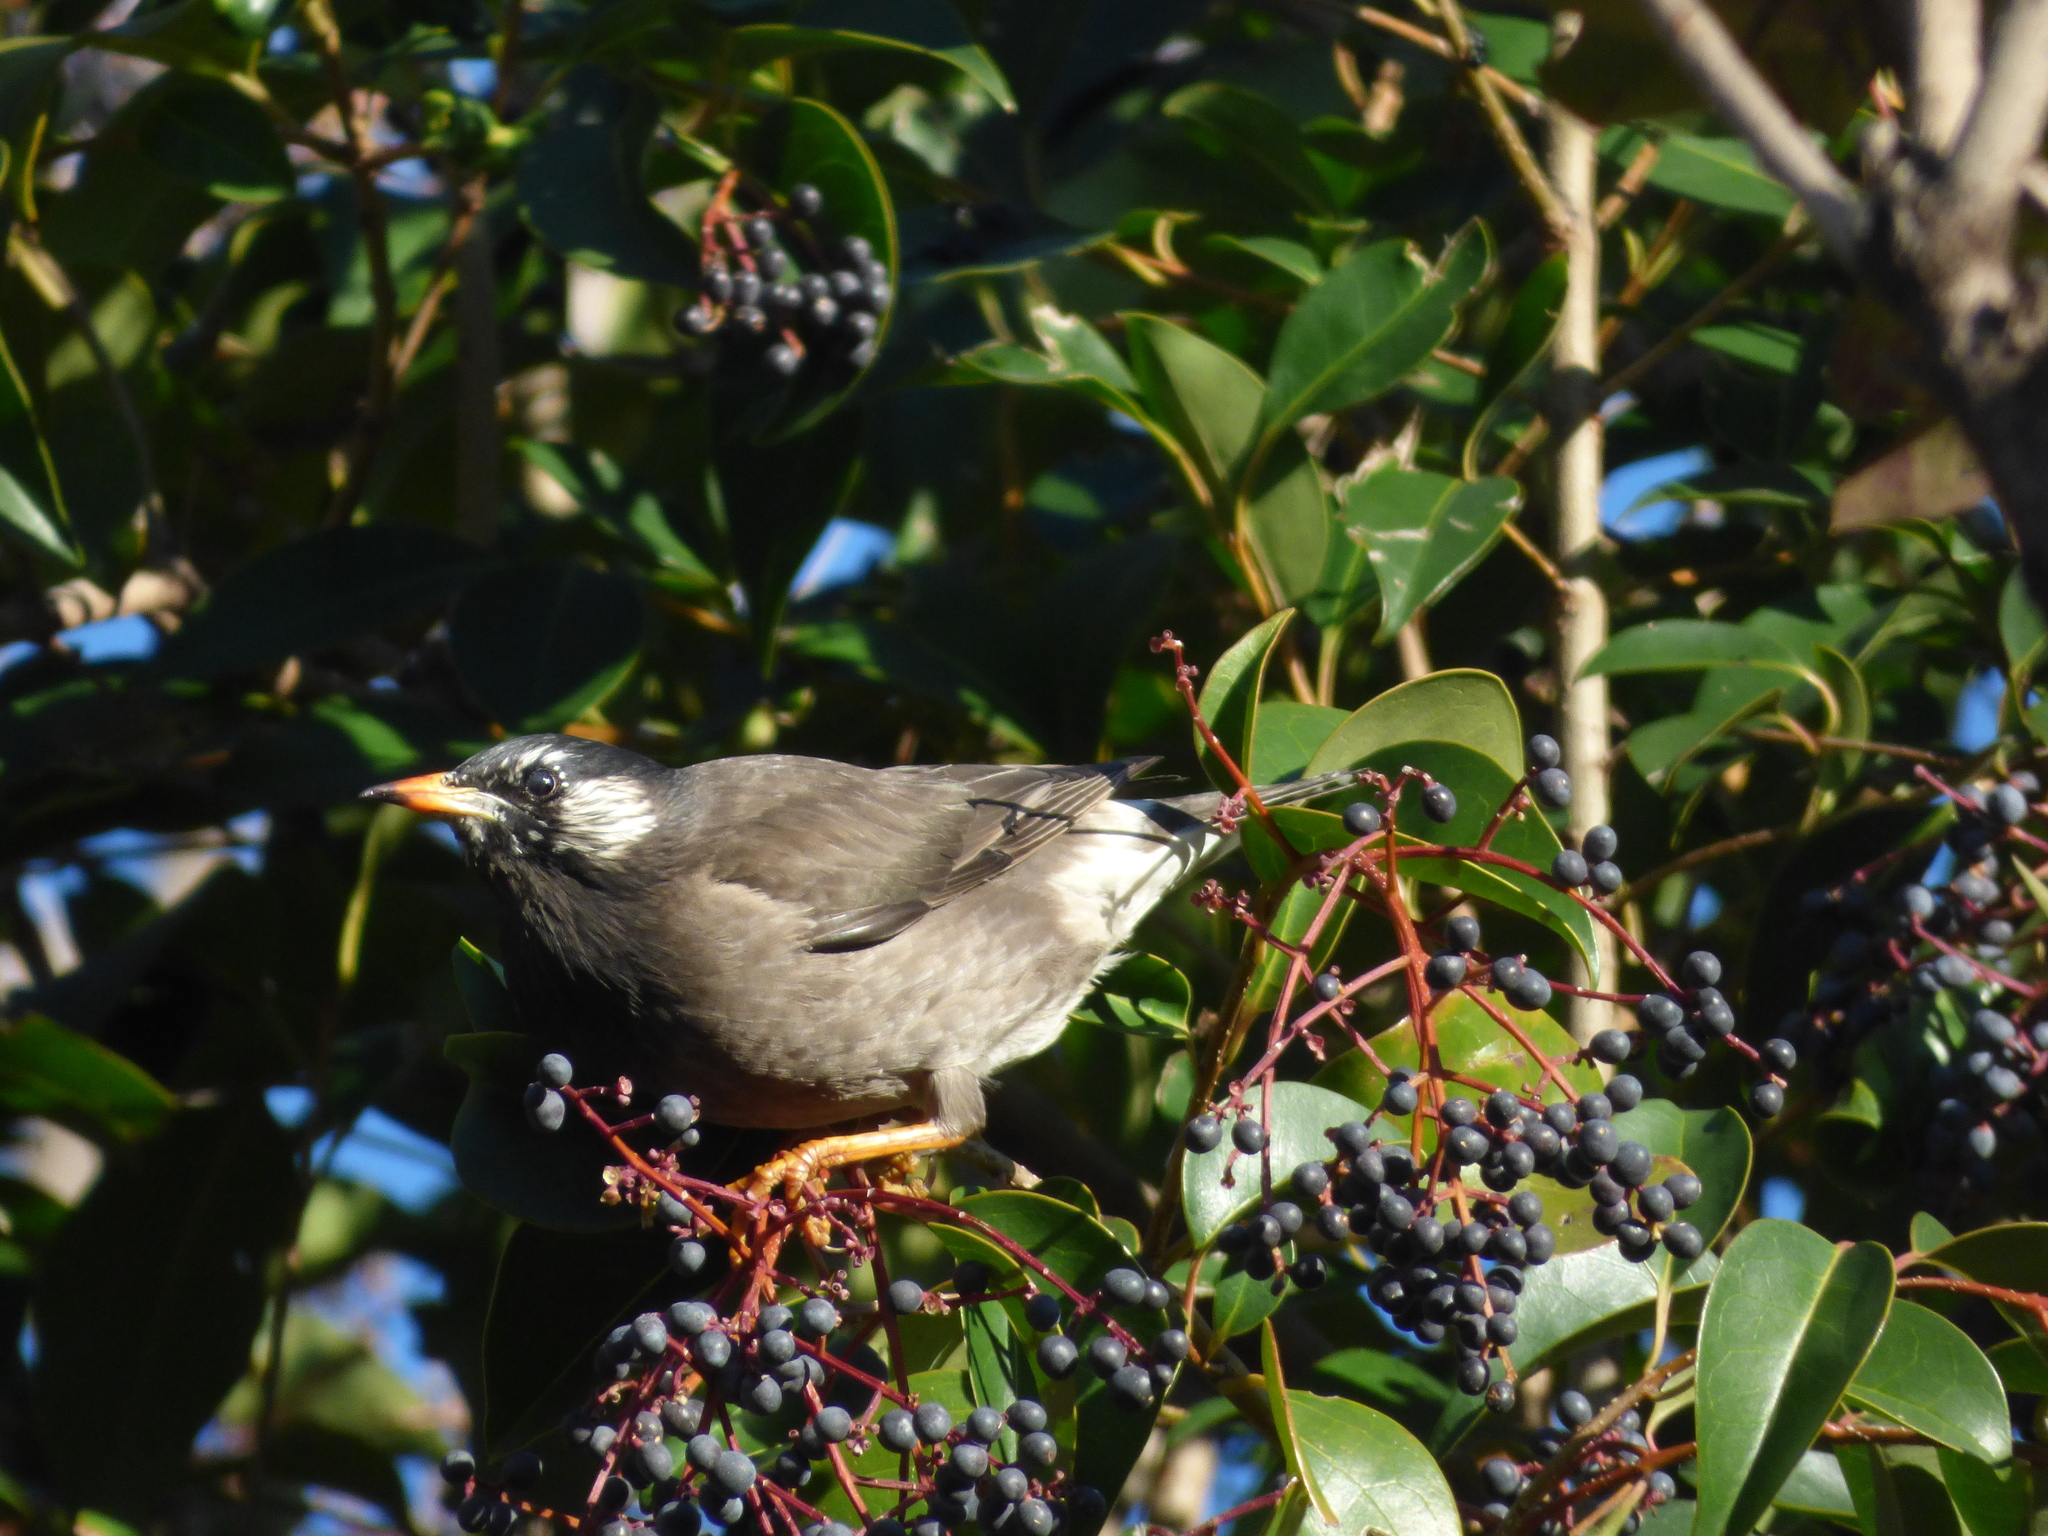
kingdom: Animalia
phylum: Chordata
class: Aves
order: Passeriformes
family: Sturnidae
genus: Spodiopsar
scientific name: Spodiopsar cineraceus
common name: White-cheeked starling
